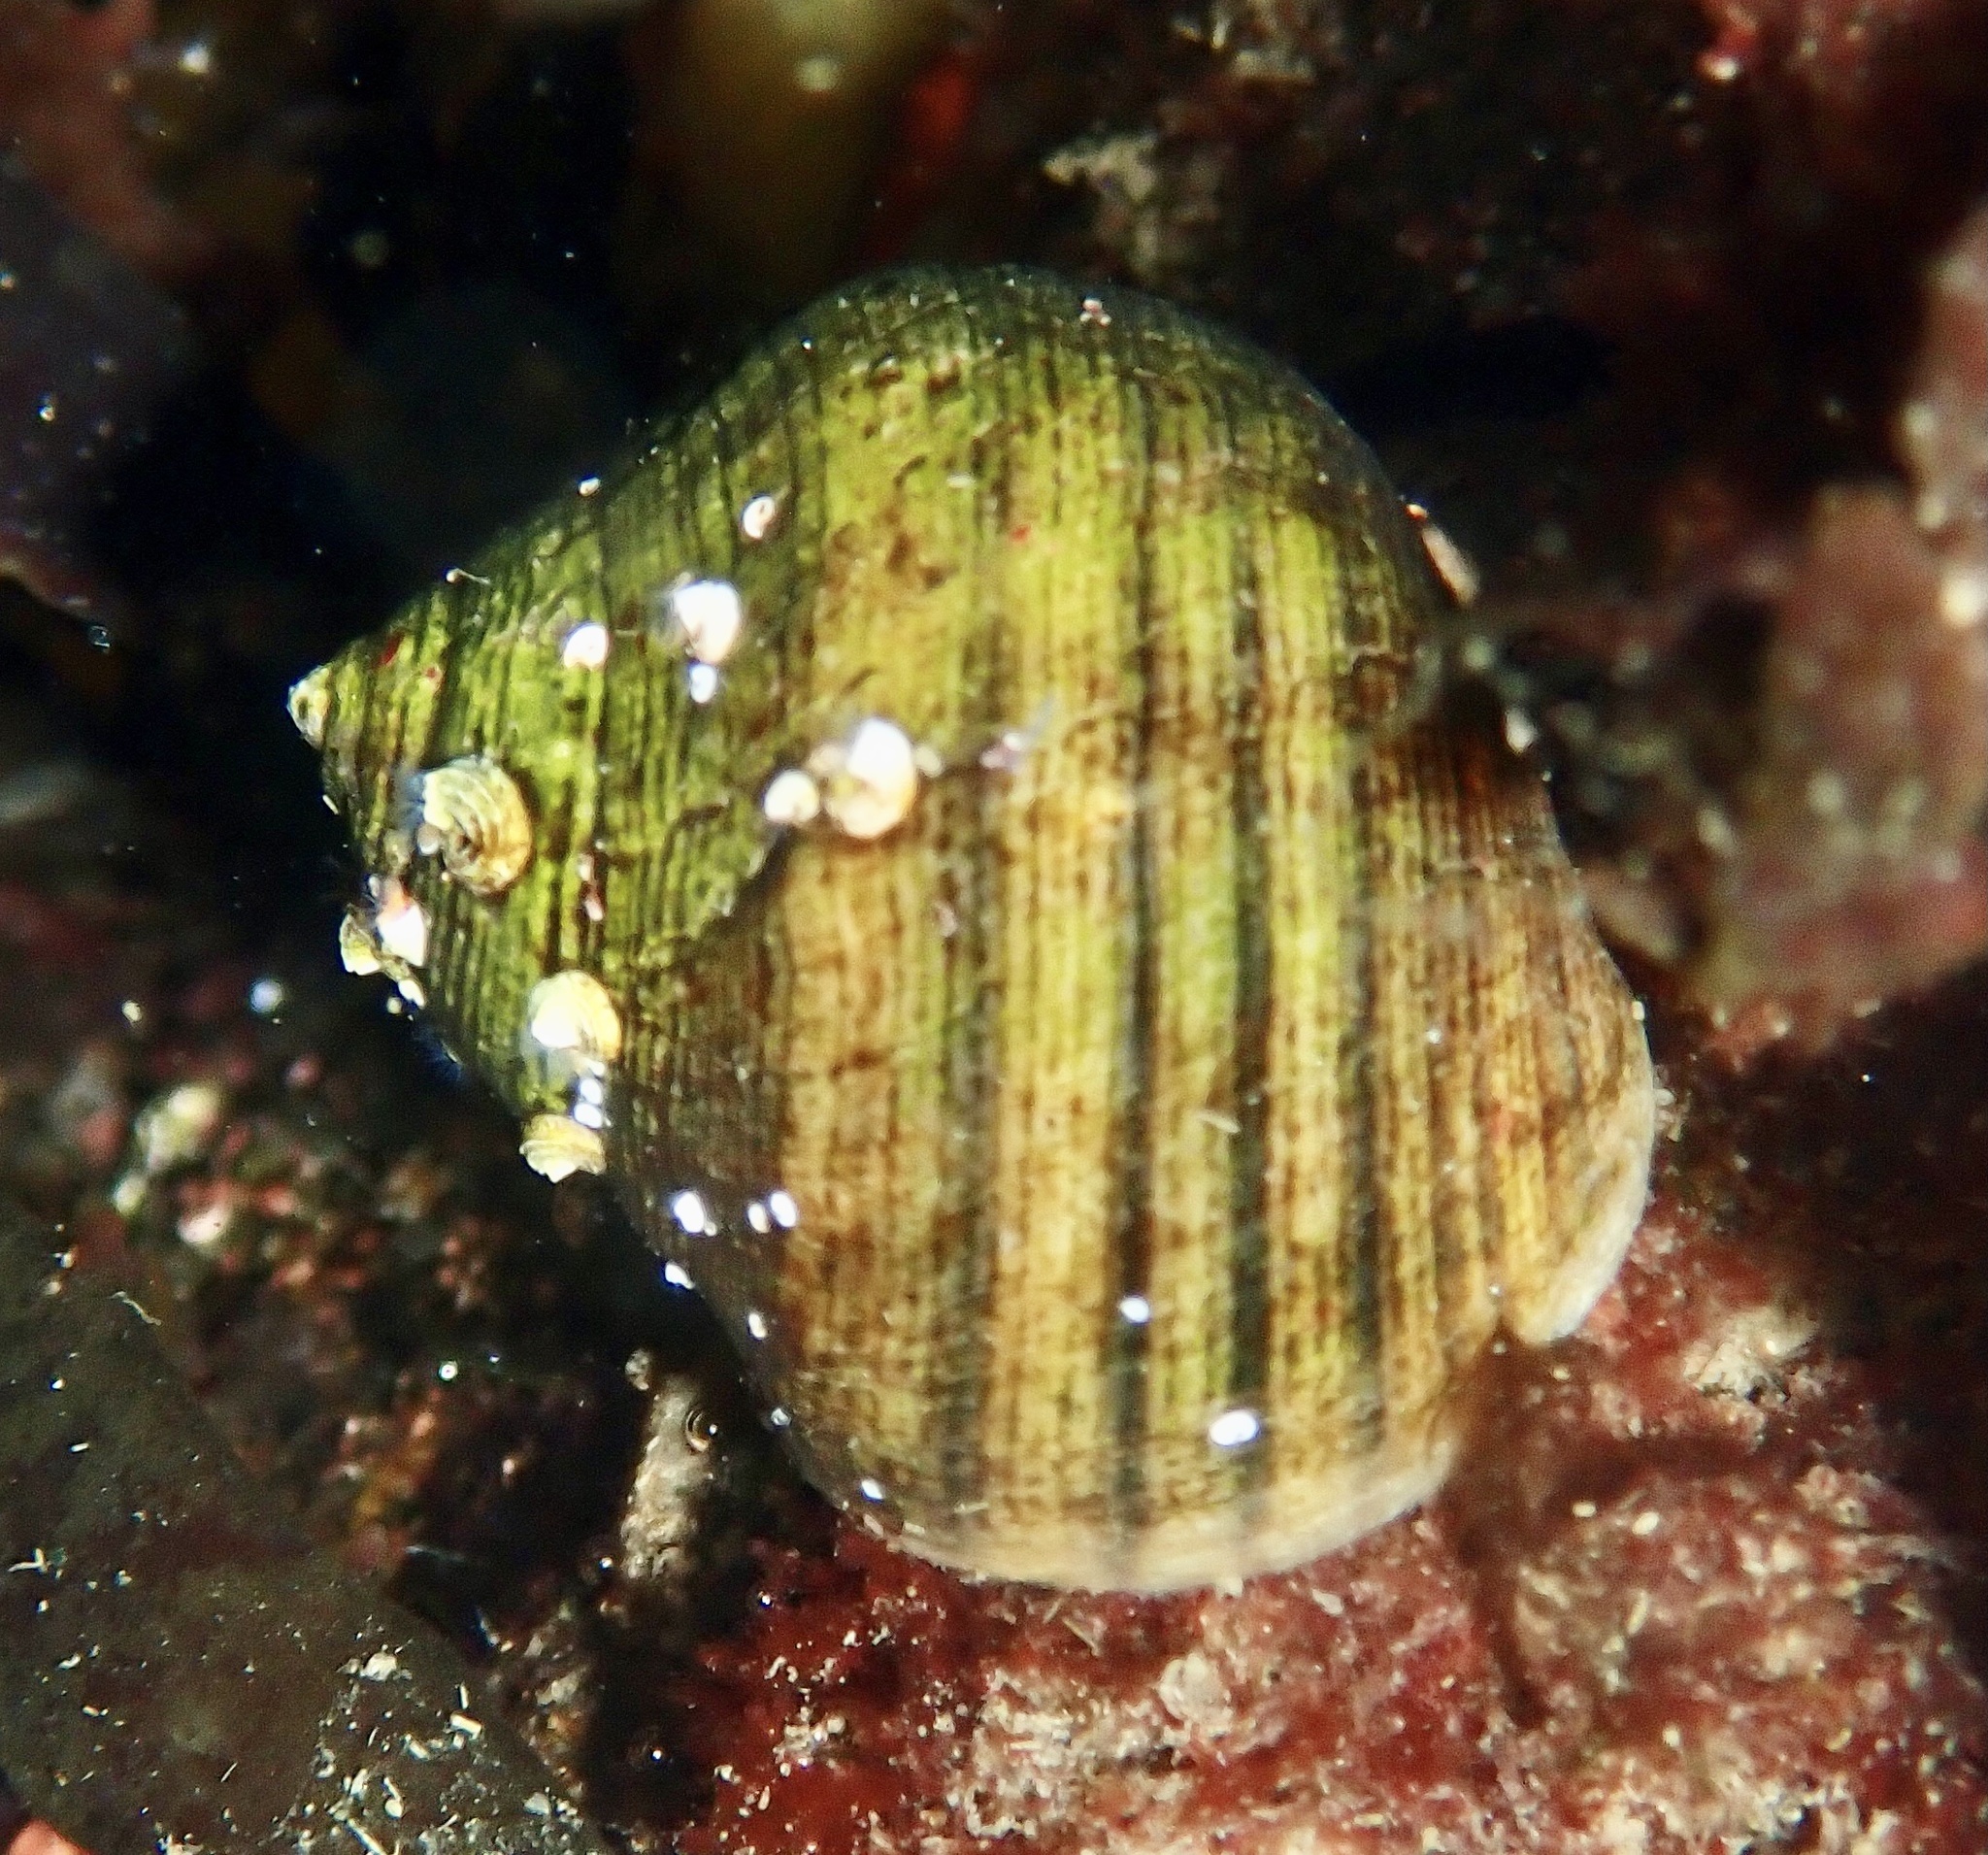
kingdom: Animalia
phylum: Mollusca
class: Gastropoda
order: Littorinimorpha
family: Littorinidae
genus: Littorina
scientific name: Littorina littorea
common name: Common periwinkle
